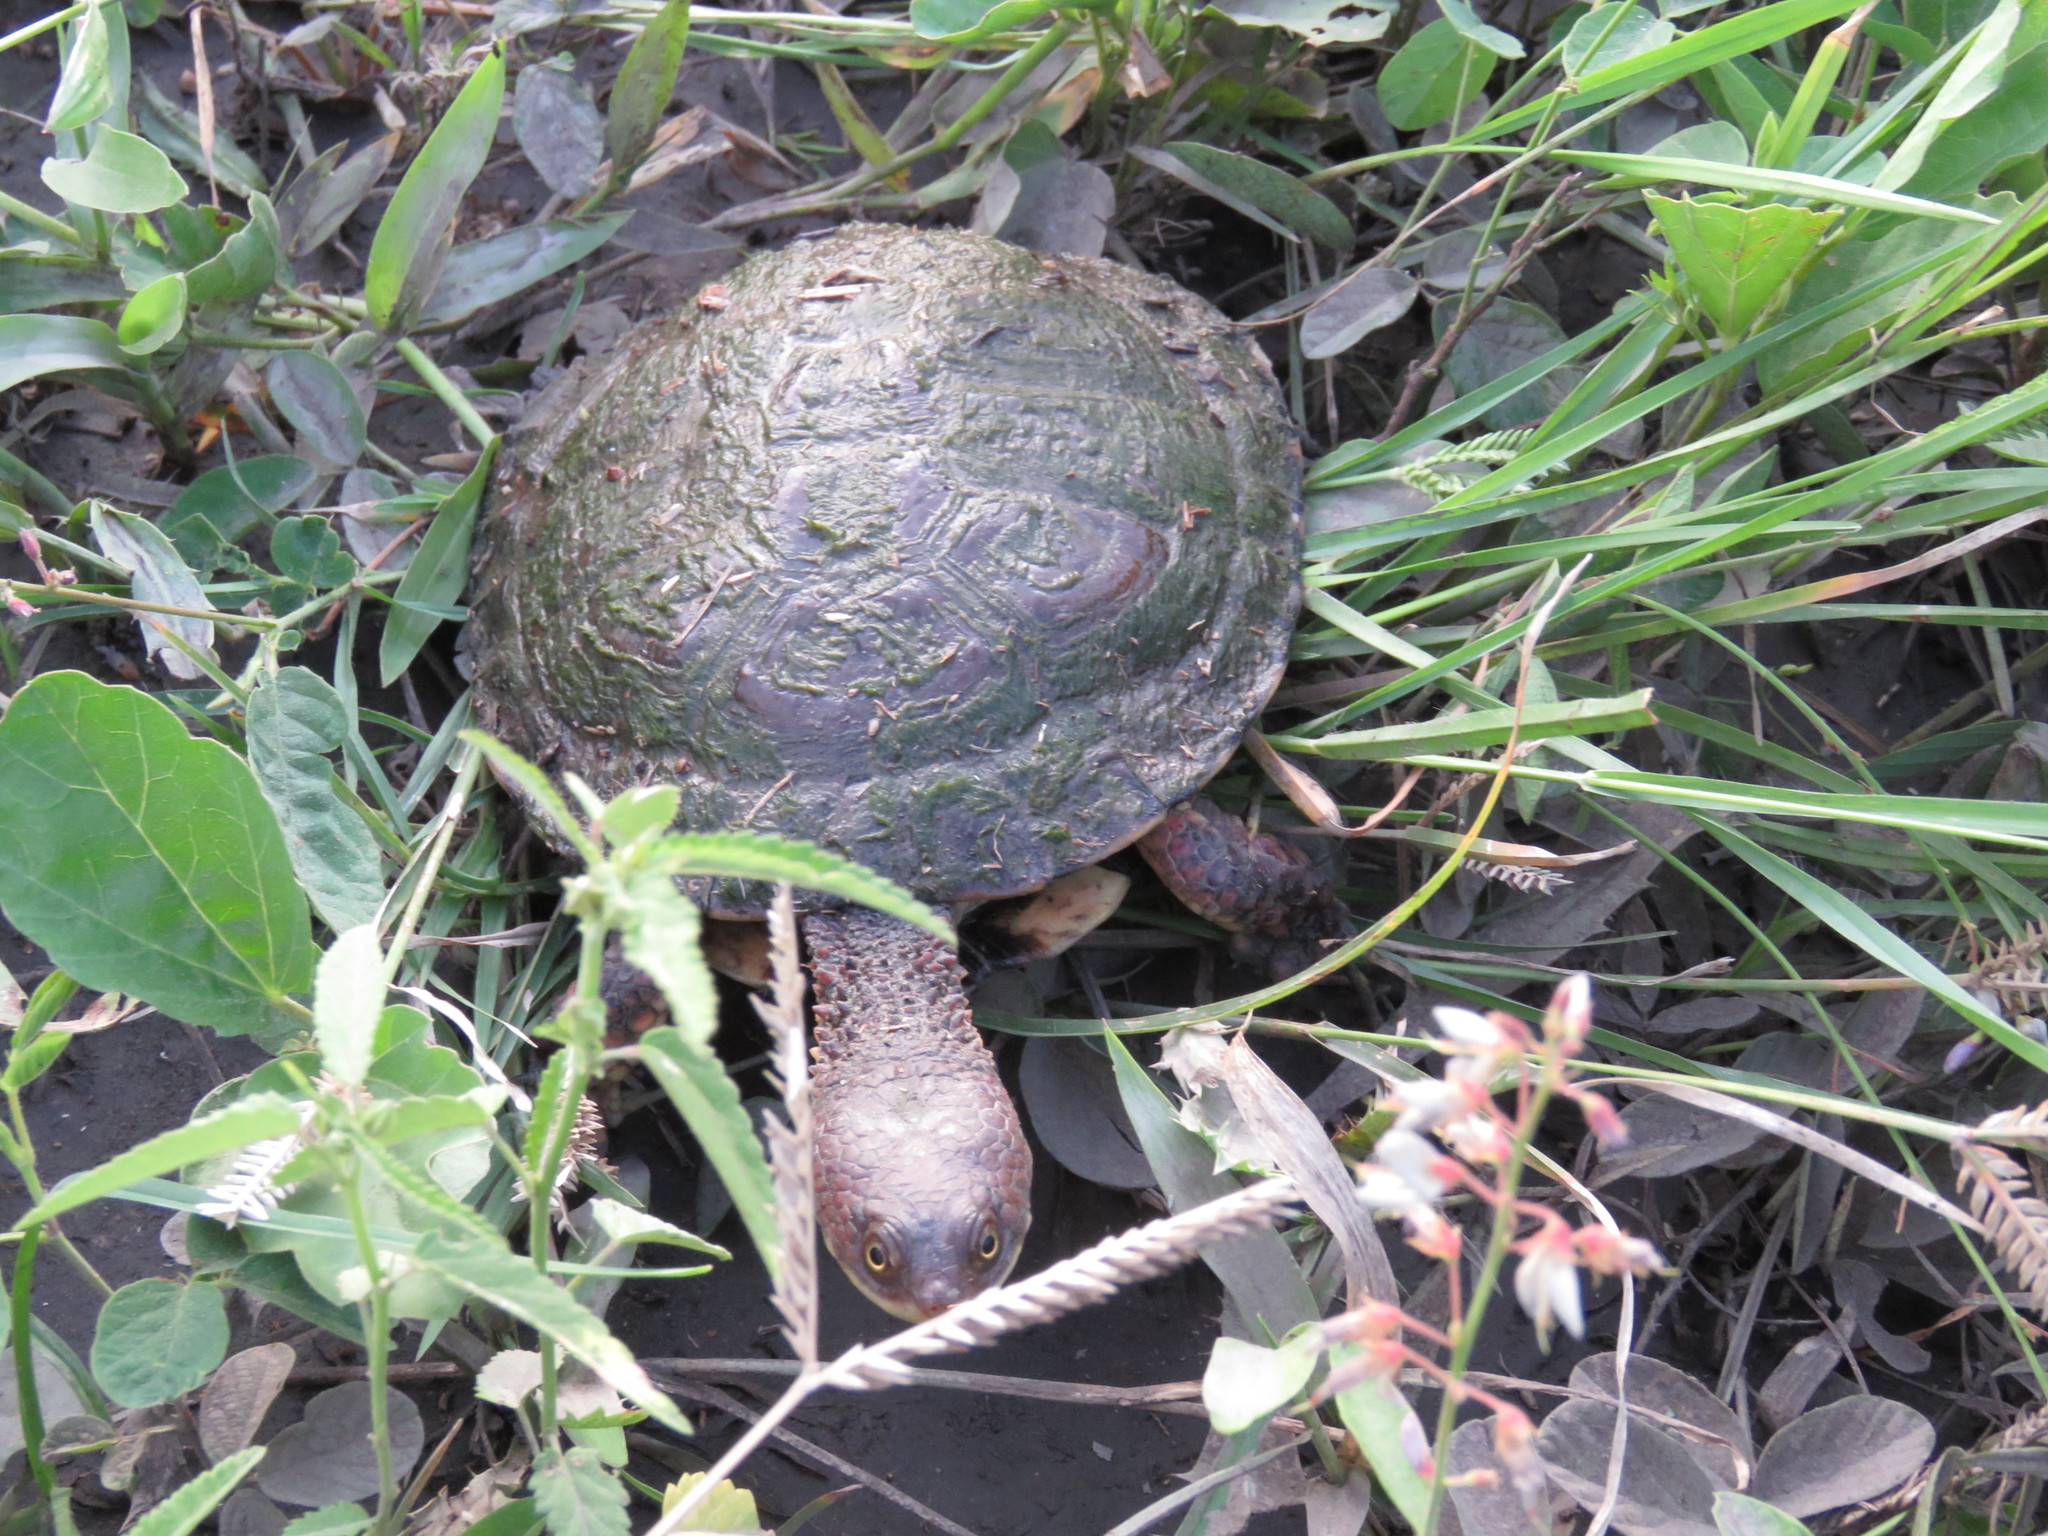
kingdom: Animalia
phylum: Chordata
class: Testudines
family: Chelidae
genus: Acanthochelys
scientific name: Acanthochelys pallidipectoris
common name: Chaco side-necked turtle
